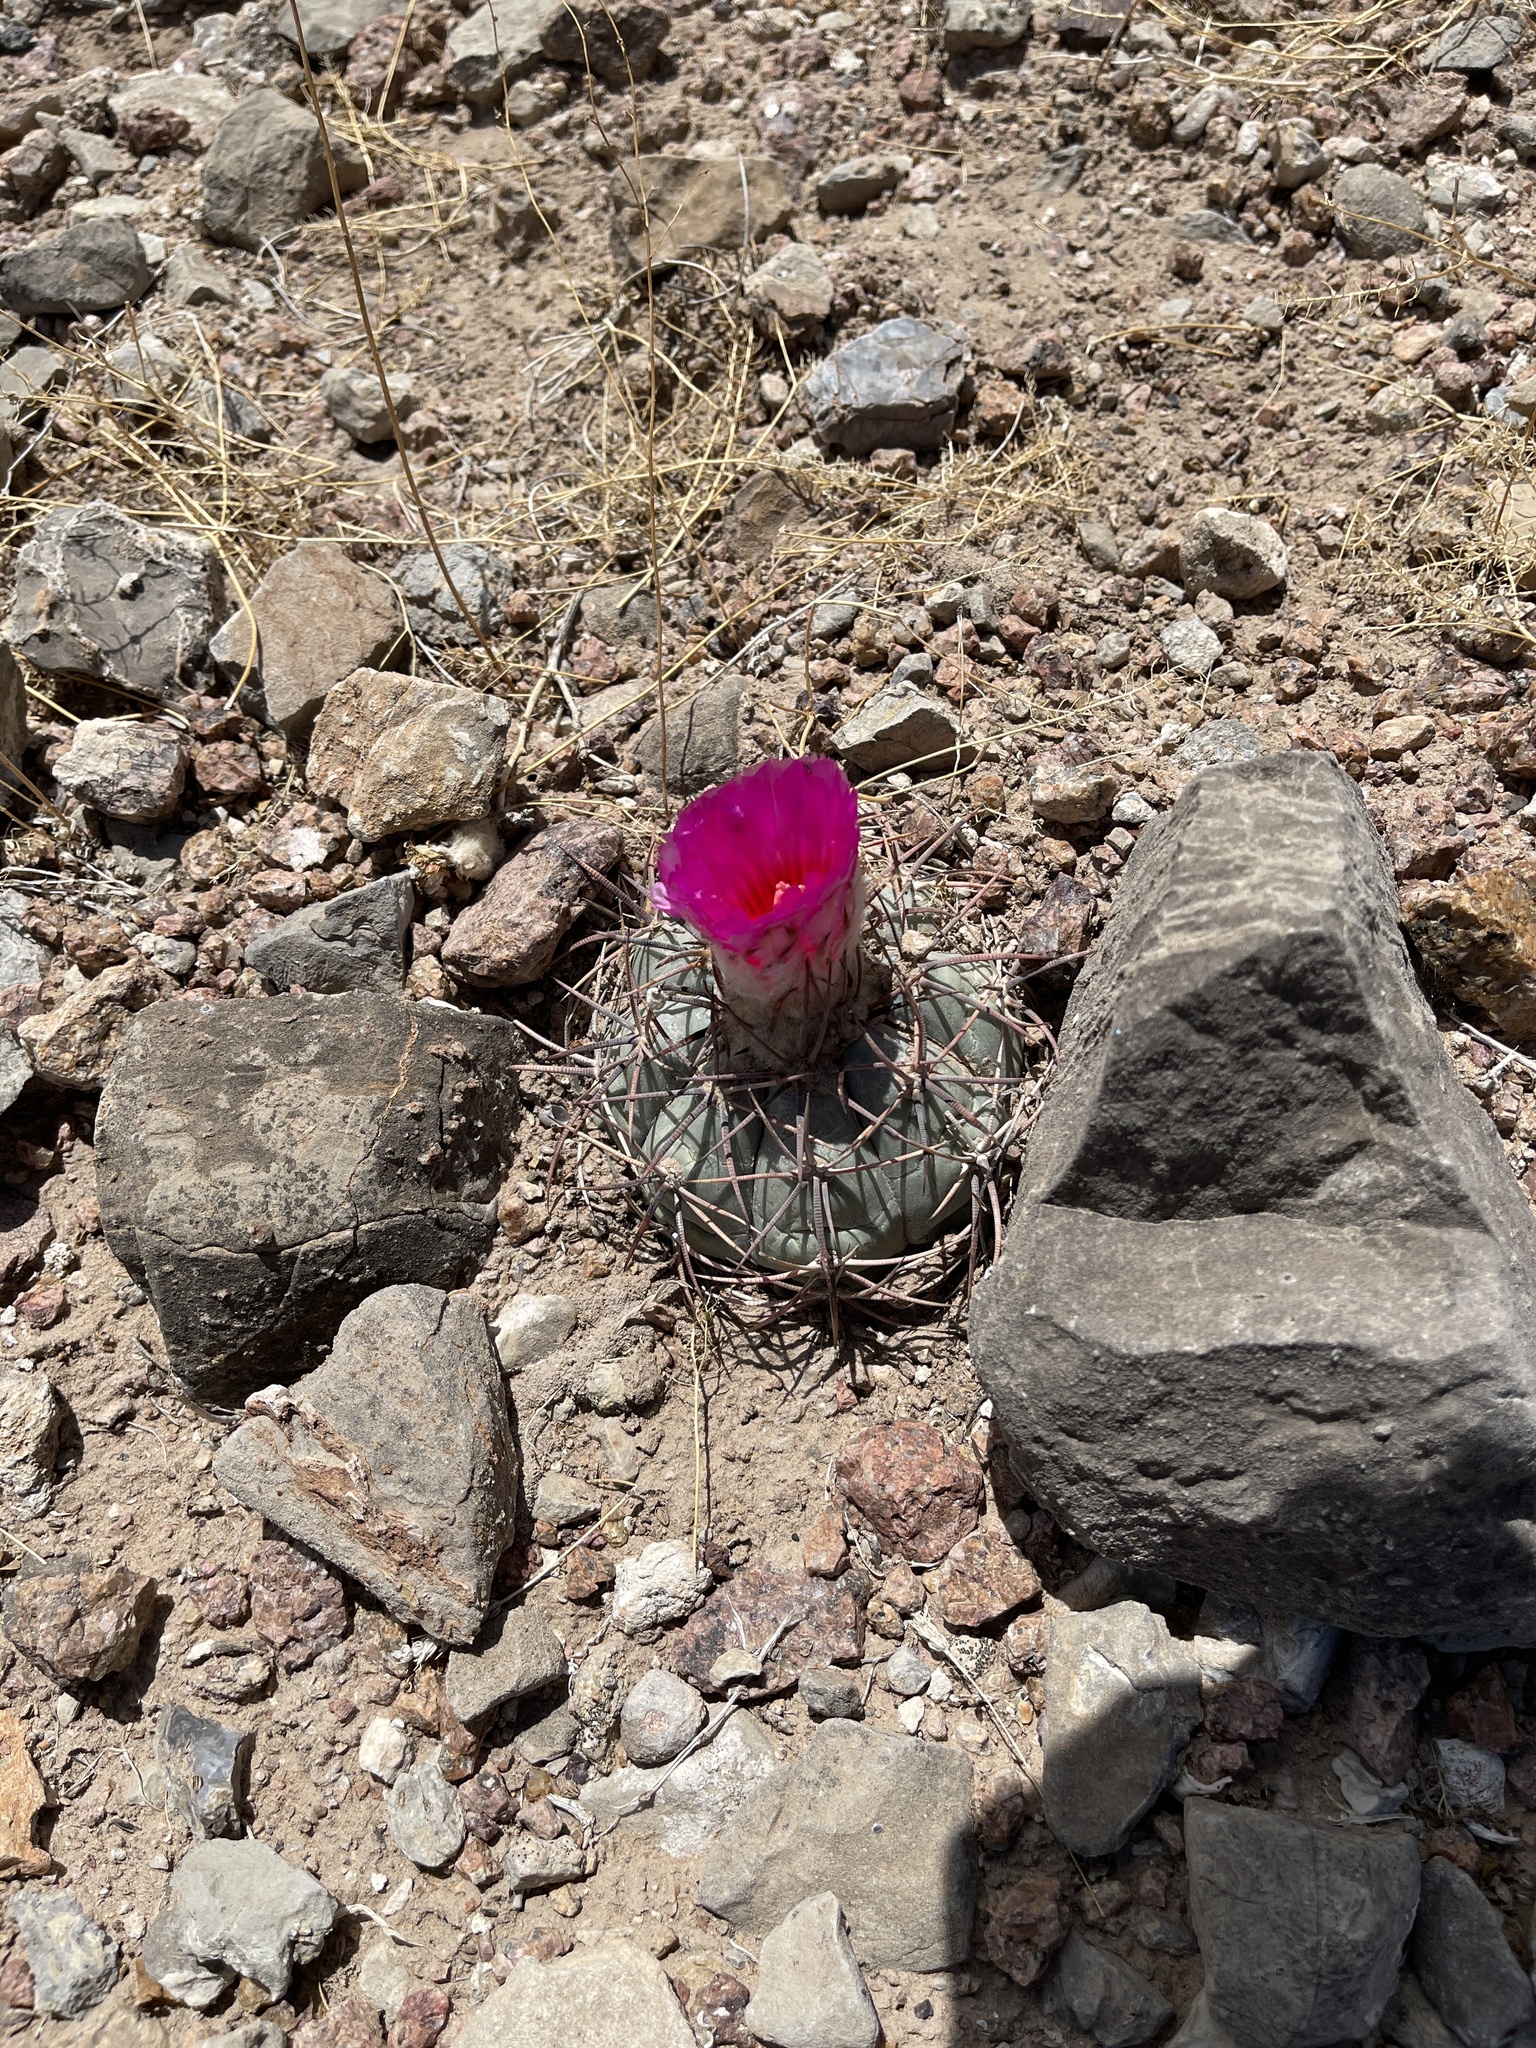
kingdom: Plantae
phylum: Tracheophyta
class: Magnoliopsida
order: Caryophyllales
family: Cactaceae
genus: Echinocactus
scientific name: Echinocactus horizonthalonius
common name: Devilshead
